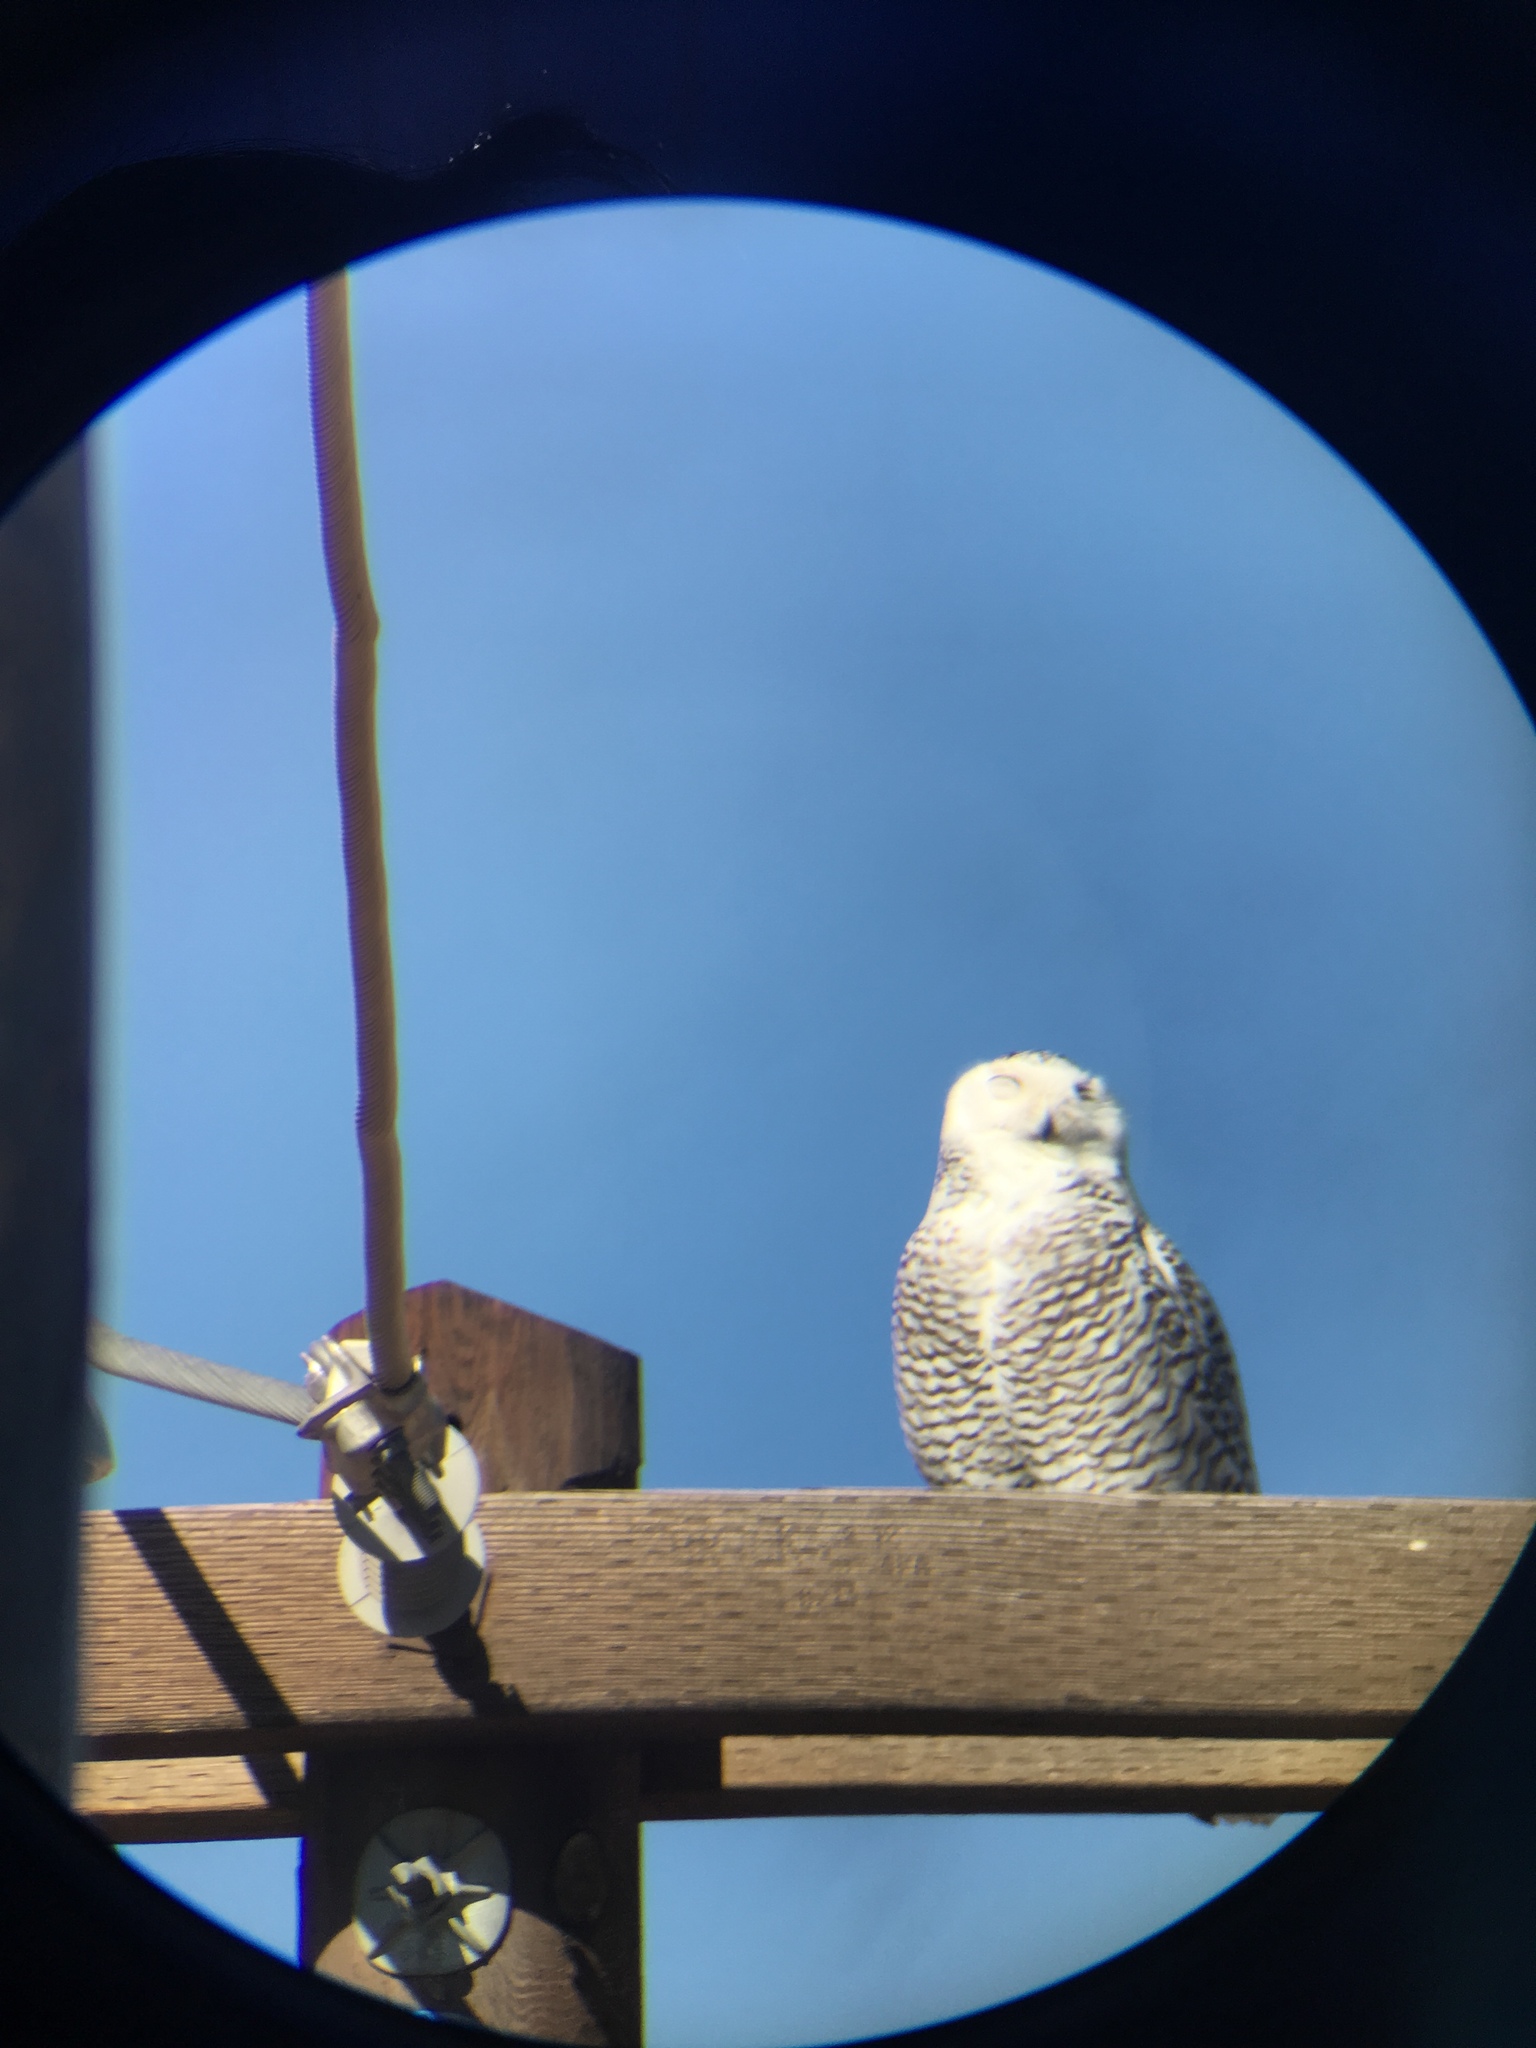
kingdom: Animalia
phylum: Chordata
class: Aves
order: Strigiformes
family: Strigidae
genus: Bubo
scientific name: Bubo scandiacus
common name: Snowy owl
